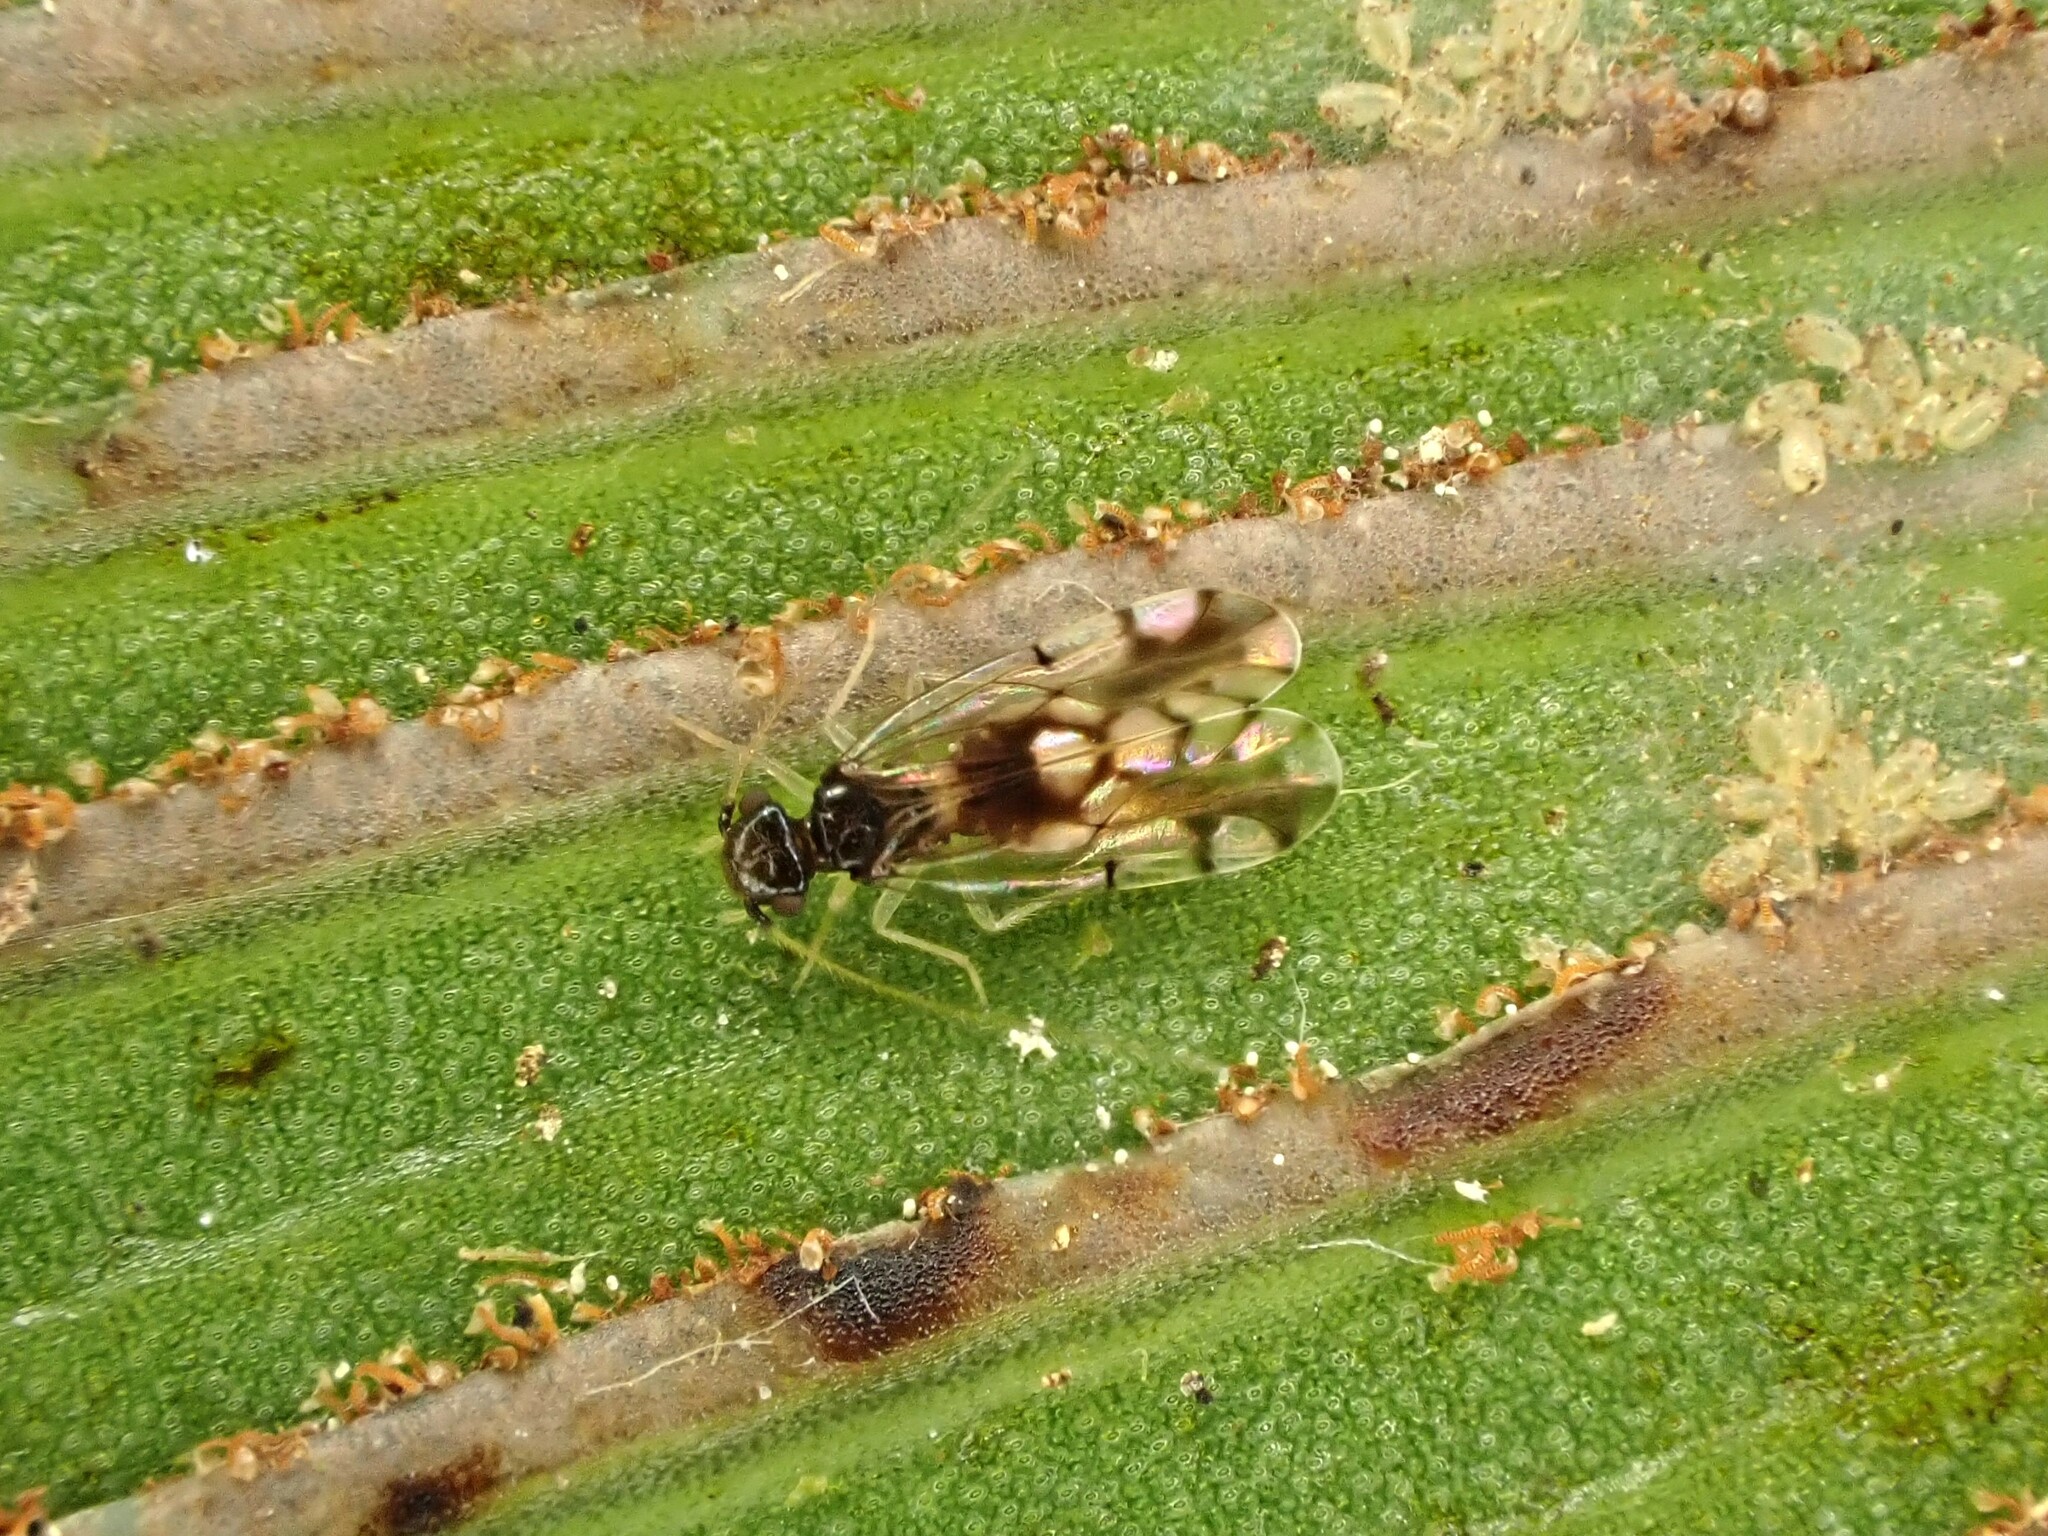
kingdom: Animalia
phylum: Arthropoda
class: Insecta
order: Psocodea
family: Ectopsocidae
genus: Ectopsocus
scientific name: Ectopsocus gracilis
